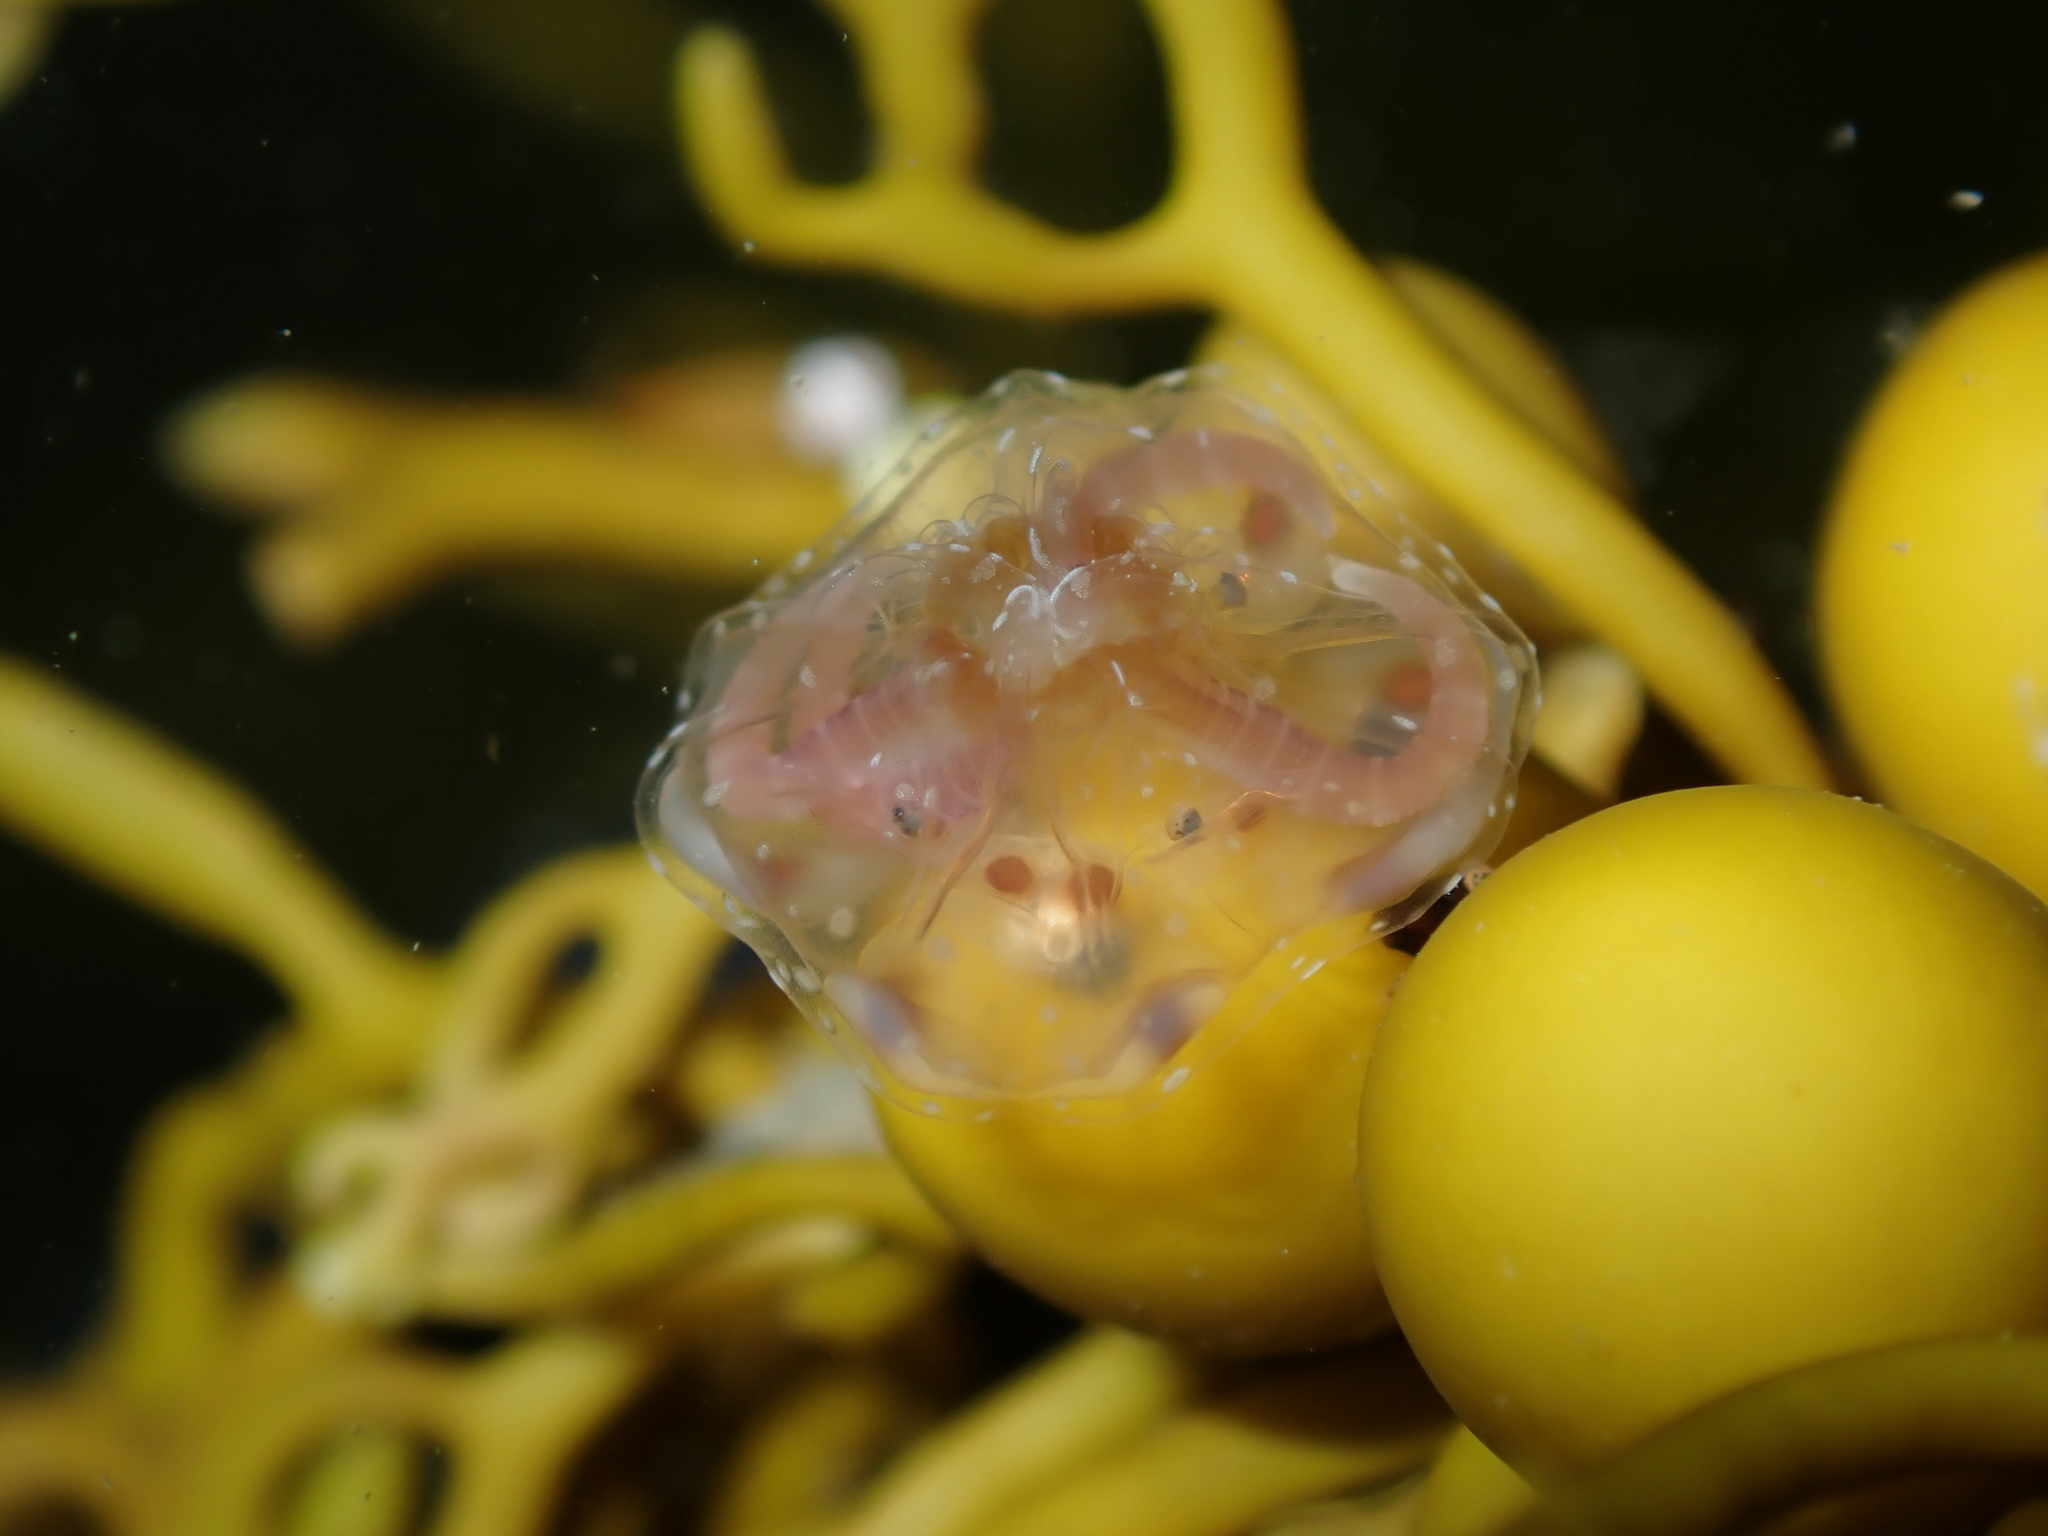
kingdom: Animalia
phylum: Cnidaria
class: Cubozoa
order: Carybdeida
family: Tripedaliidae
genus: Copula
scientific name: Copula sivickisi
